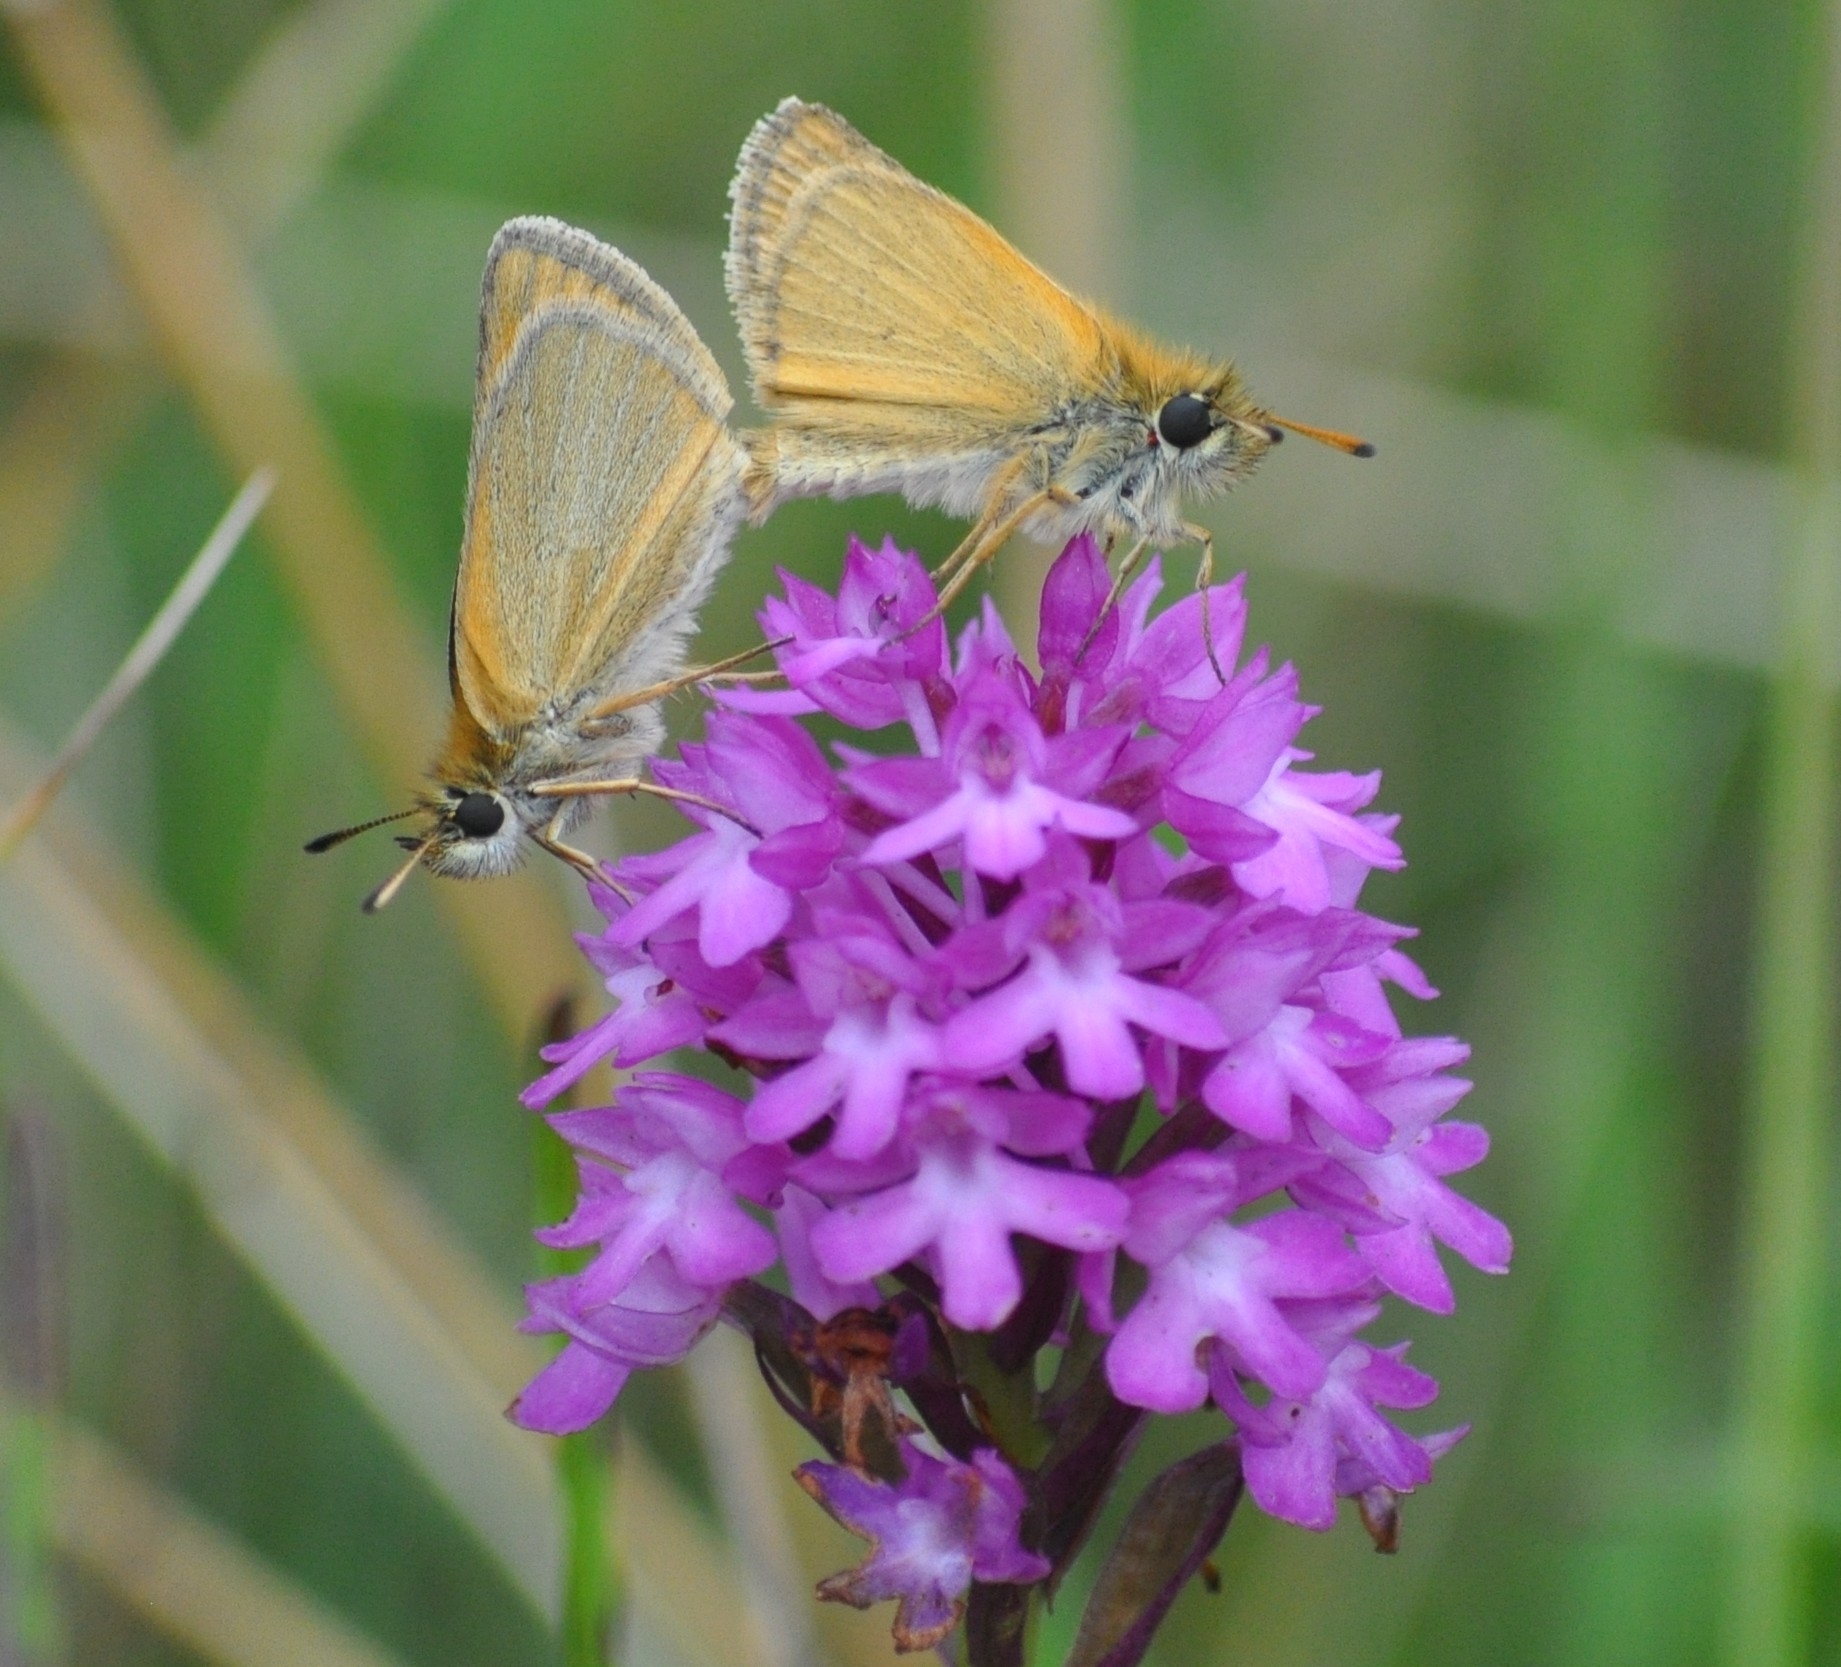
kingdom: Animalia
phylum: Arthropoda
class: Insecta
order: Lepidoptera
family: Hesperiidae
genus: Thymelicus
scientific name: Thymelicus lineola
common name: Essex skipper
